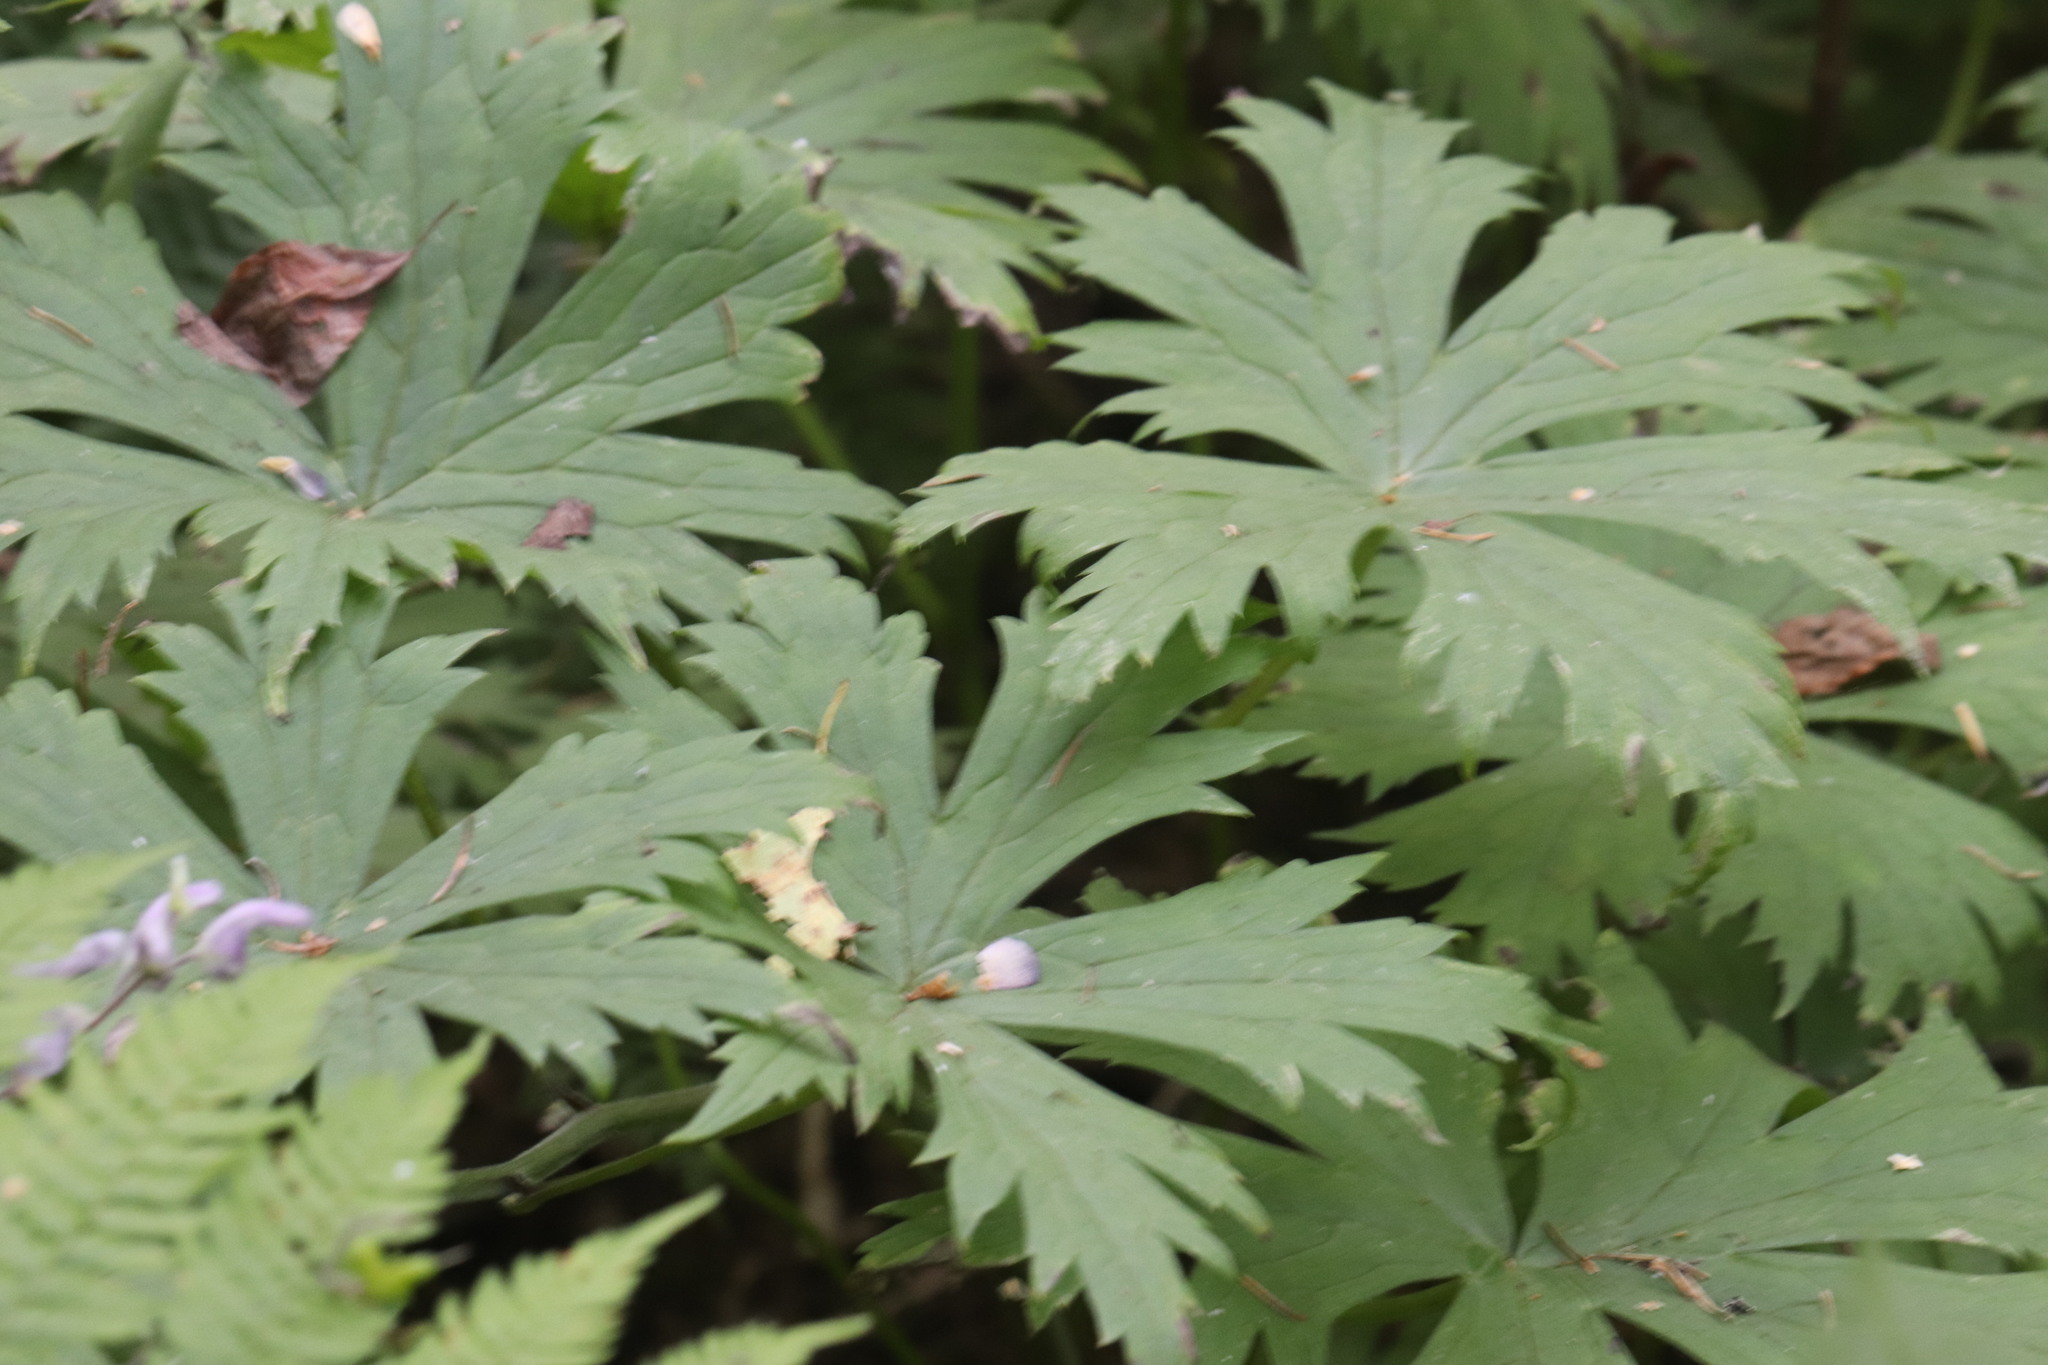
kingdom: Plantae
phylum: Tracheophyta
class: Magnoliopsida
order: Ranunculales
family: Ranunculaceae
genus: Aconitum
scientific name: Aconitum septentrionale
